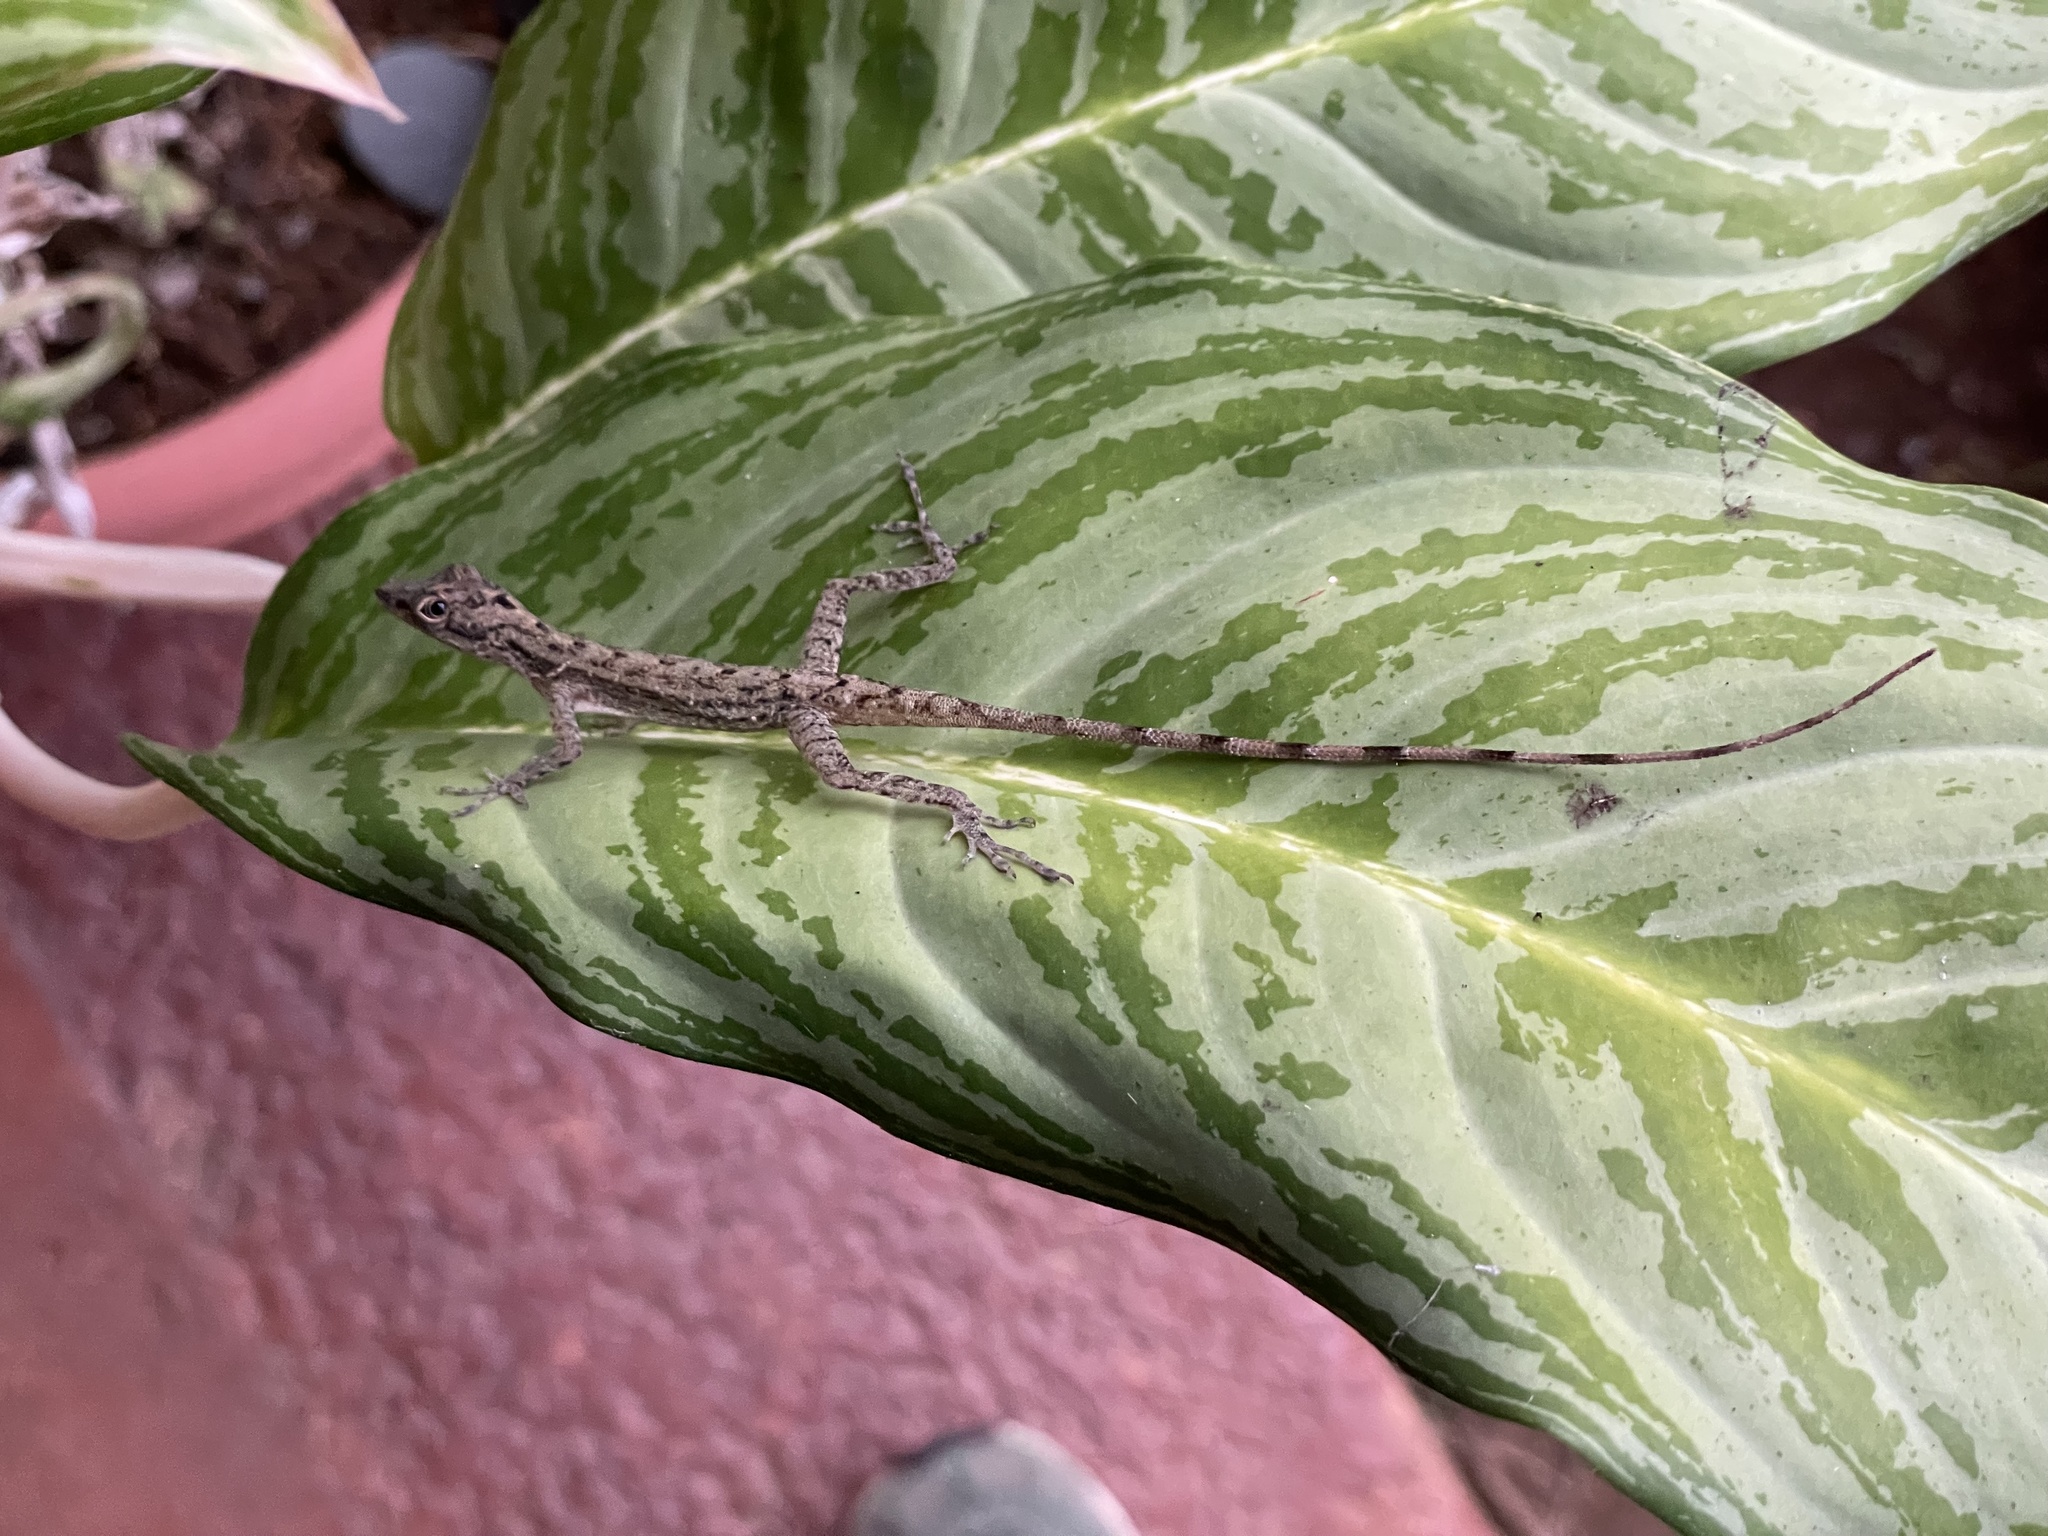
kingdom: Animalia
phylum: Chordata
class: Squamata
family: Dactyloidae
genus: Anolis
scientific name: Anolis limifrons
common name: Border anole
